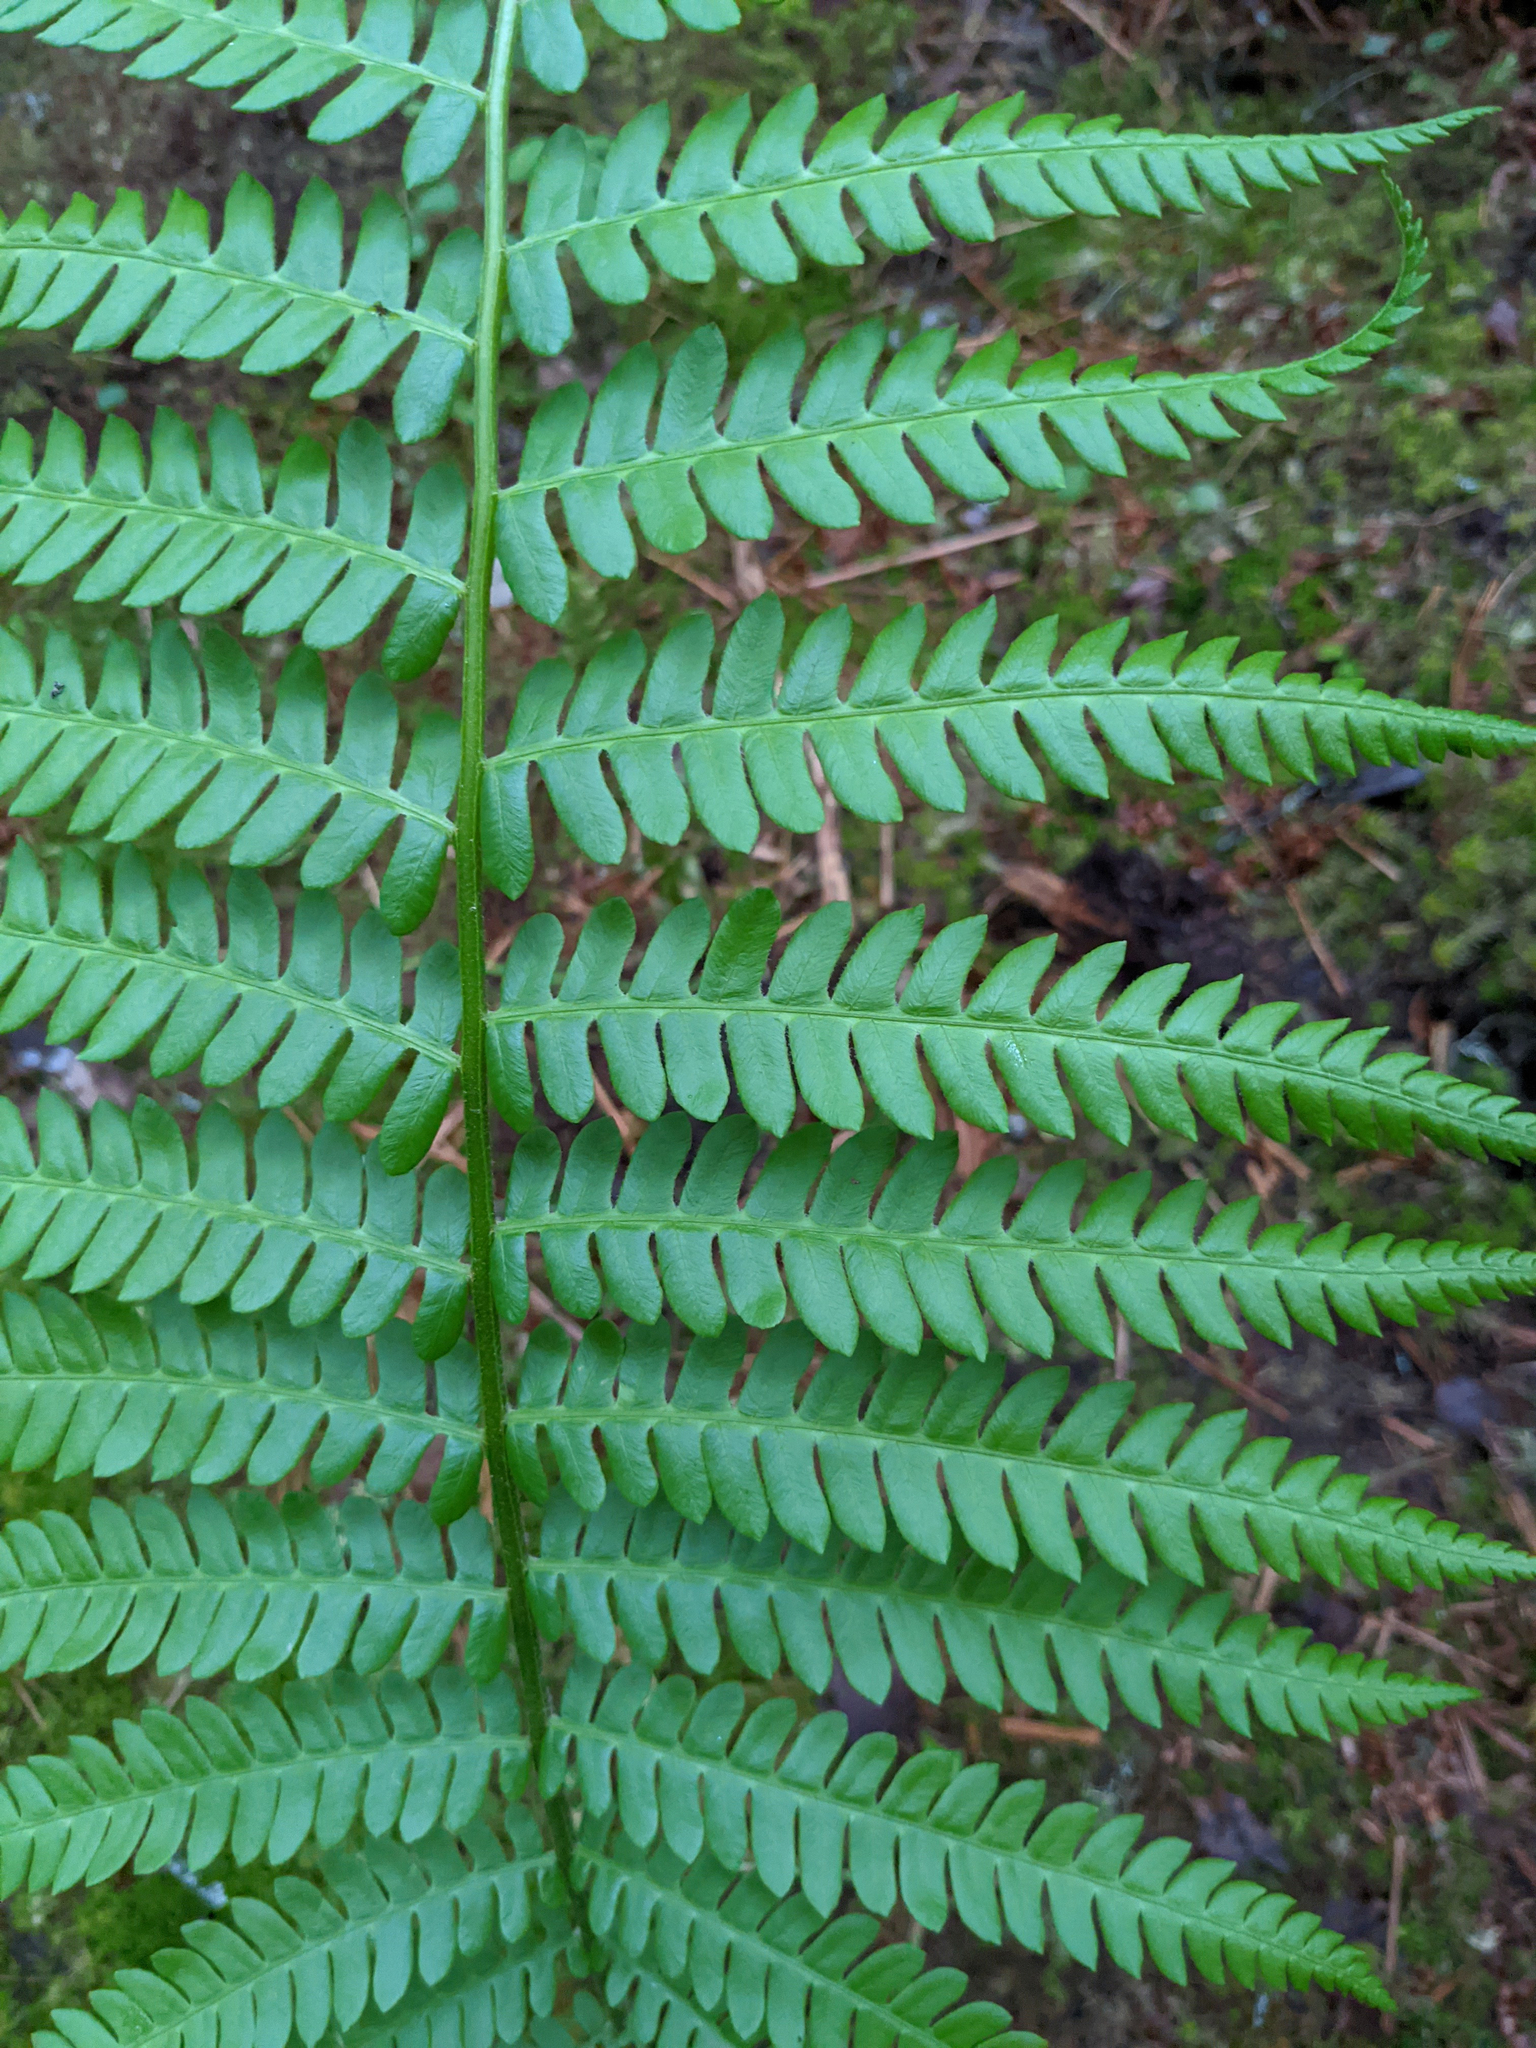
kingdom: Plantae
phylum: Tracheophyta
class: Polypodiopsida
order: Osmundales
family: Osmundaceae
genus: Osmundastrum
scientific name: Osmundastrum cinnamomeum
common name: Cinnamon fern
